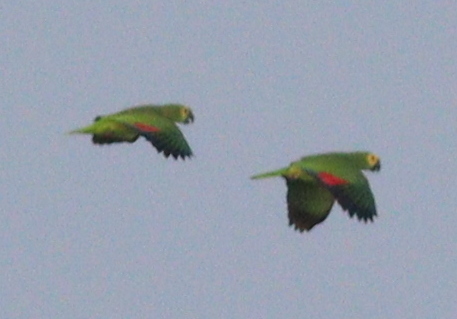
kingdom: Animalia
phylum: Chordata
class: Aves
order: Psittaciformes
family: Psittacidae
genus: Amazona
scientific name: Amazona aestiva
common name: Turquoise-fronted amazon
